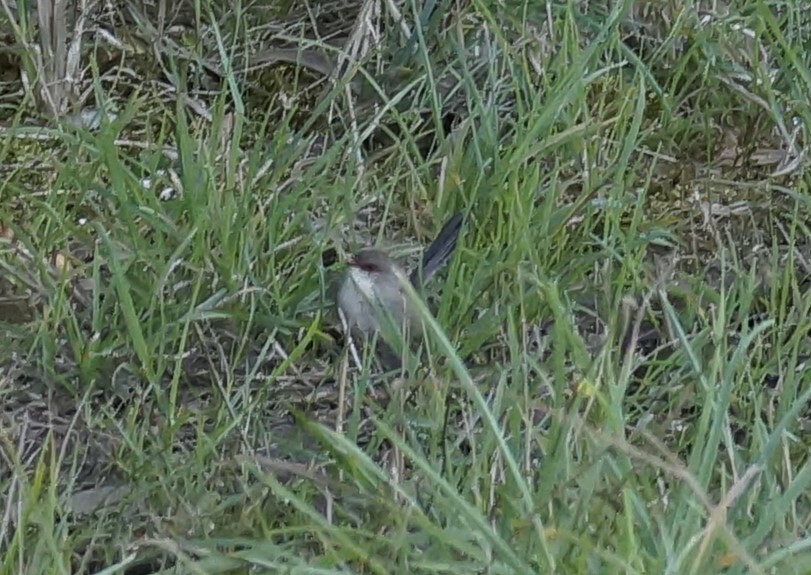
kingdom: Animalia
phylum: Chordata
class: Aves
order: Passeriformes
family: Maluridae
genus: Malurus
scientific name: Malurus cyaneus
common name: Superb fairywren
